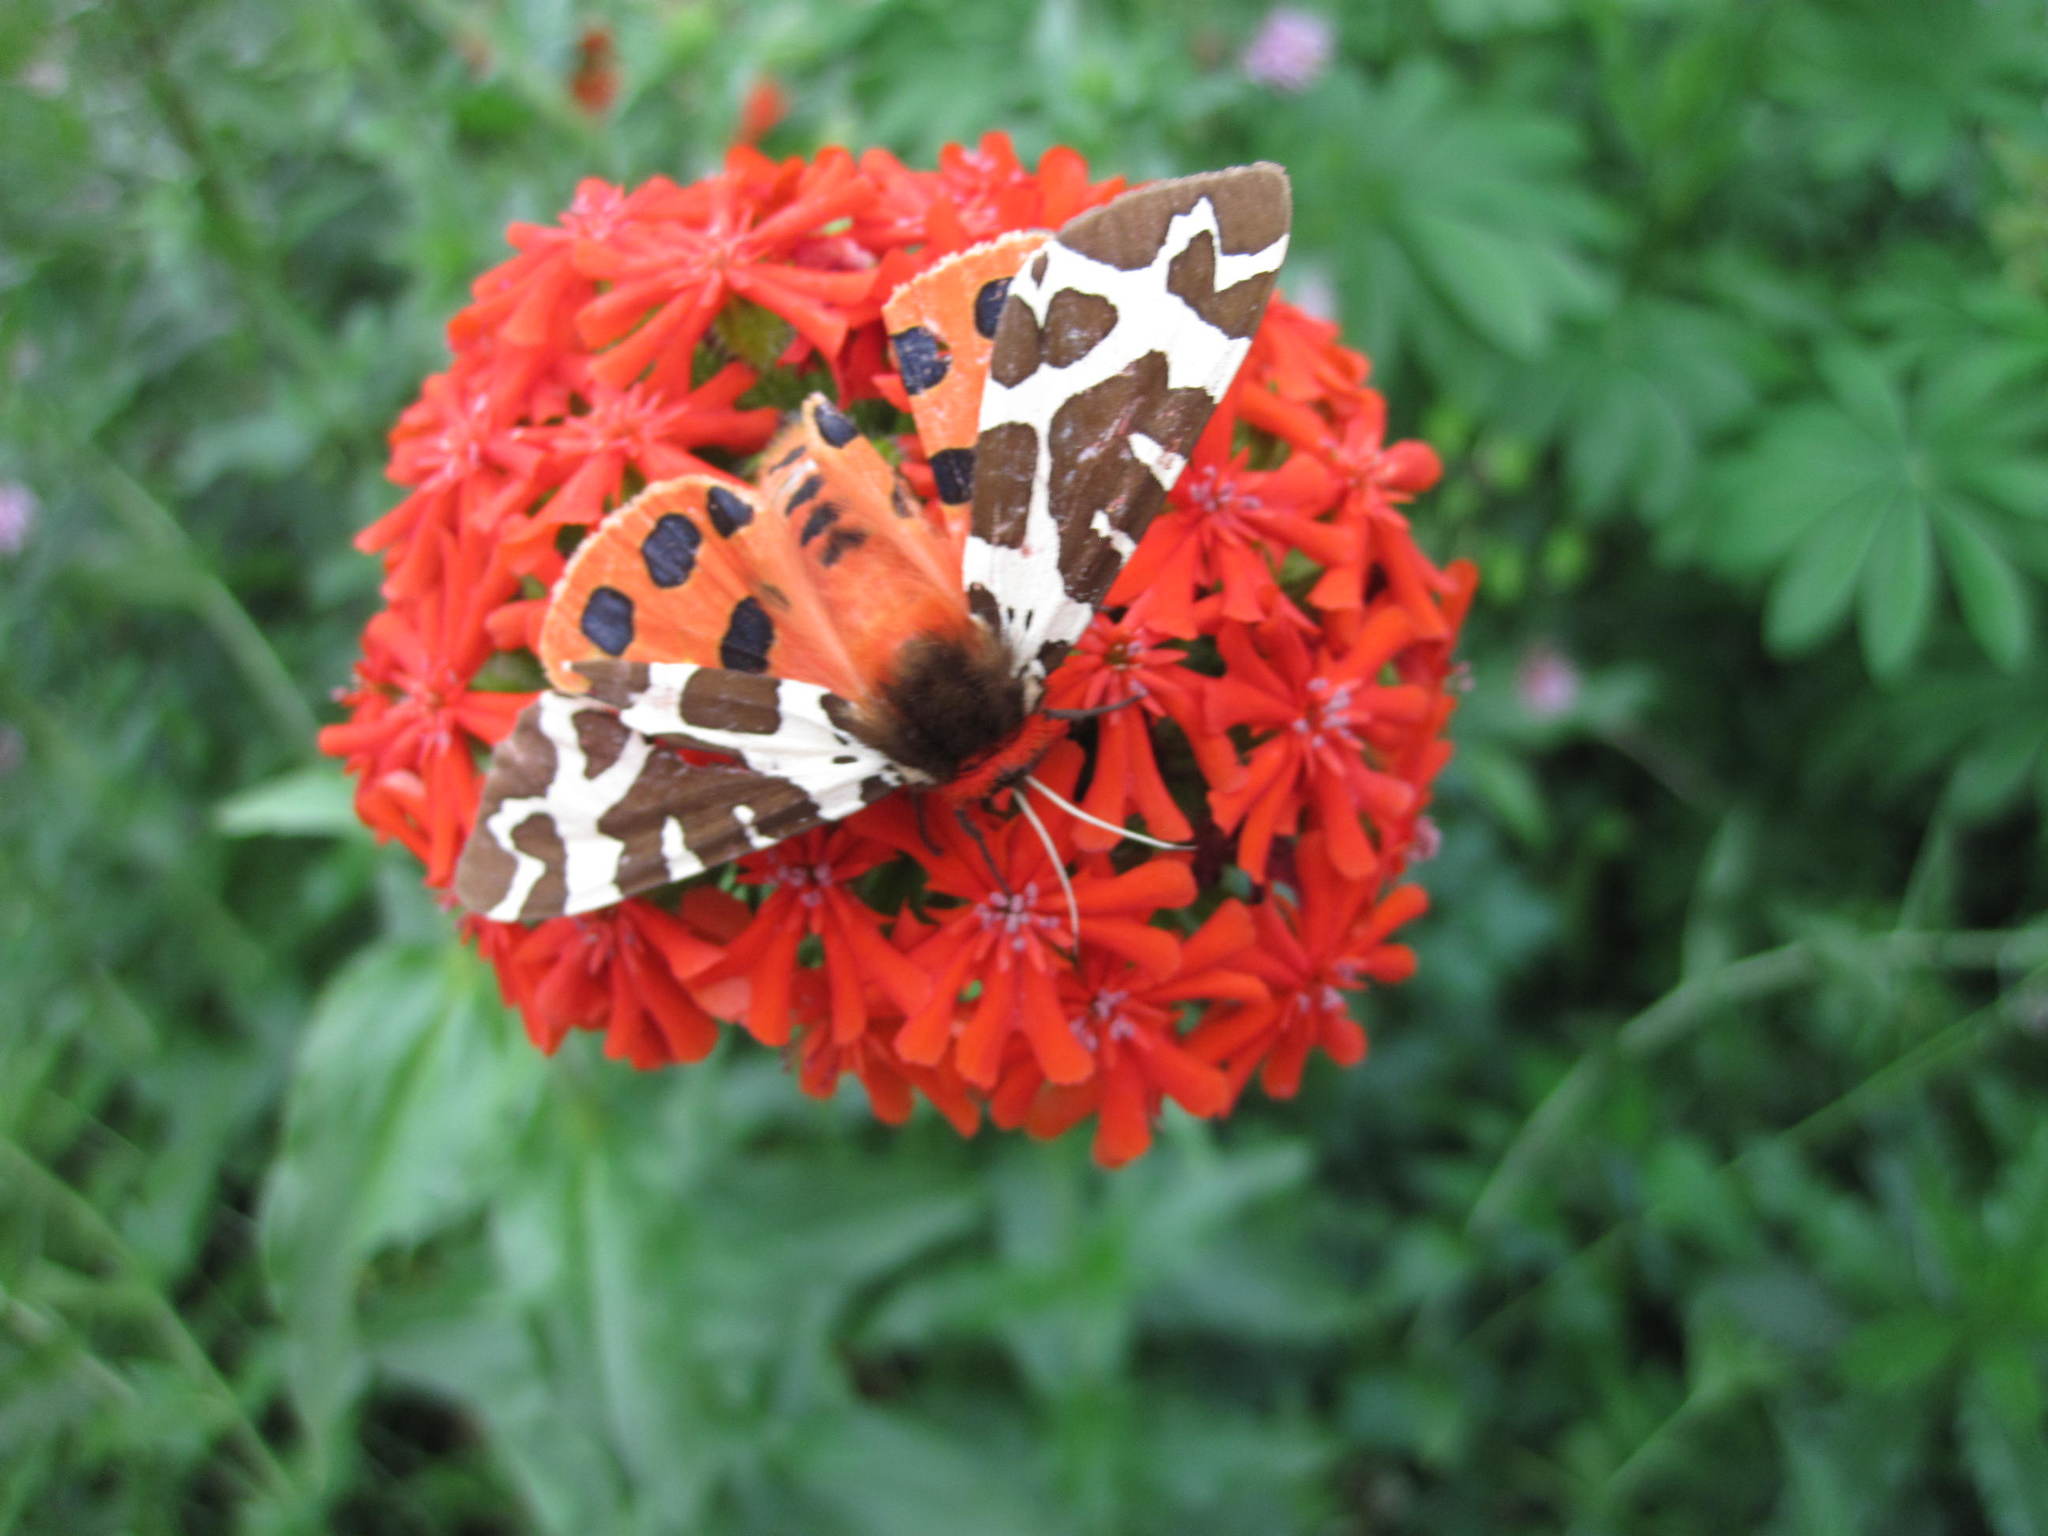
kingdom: Animalia
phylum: Arthropoda
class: Insecta
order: Lepidoptera
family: Erebidae
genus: Arctia
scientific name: Arctia caja
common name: Garden tiger
